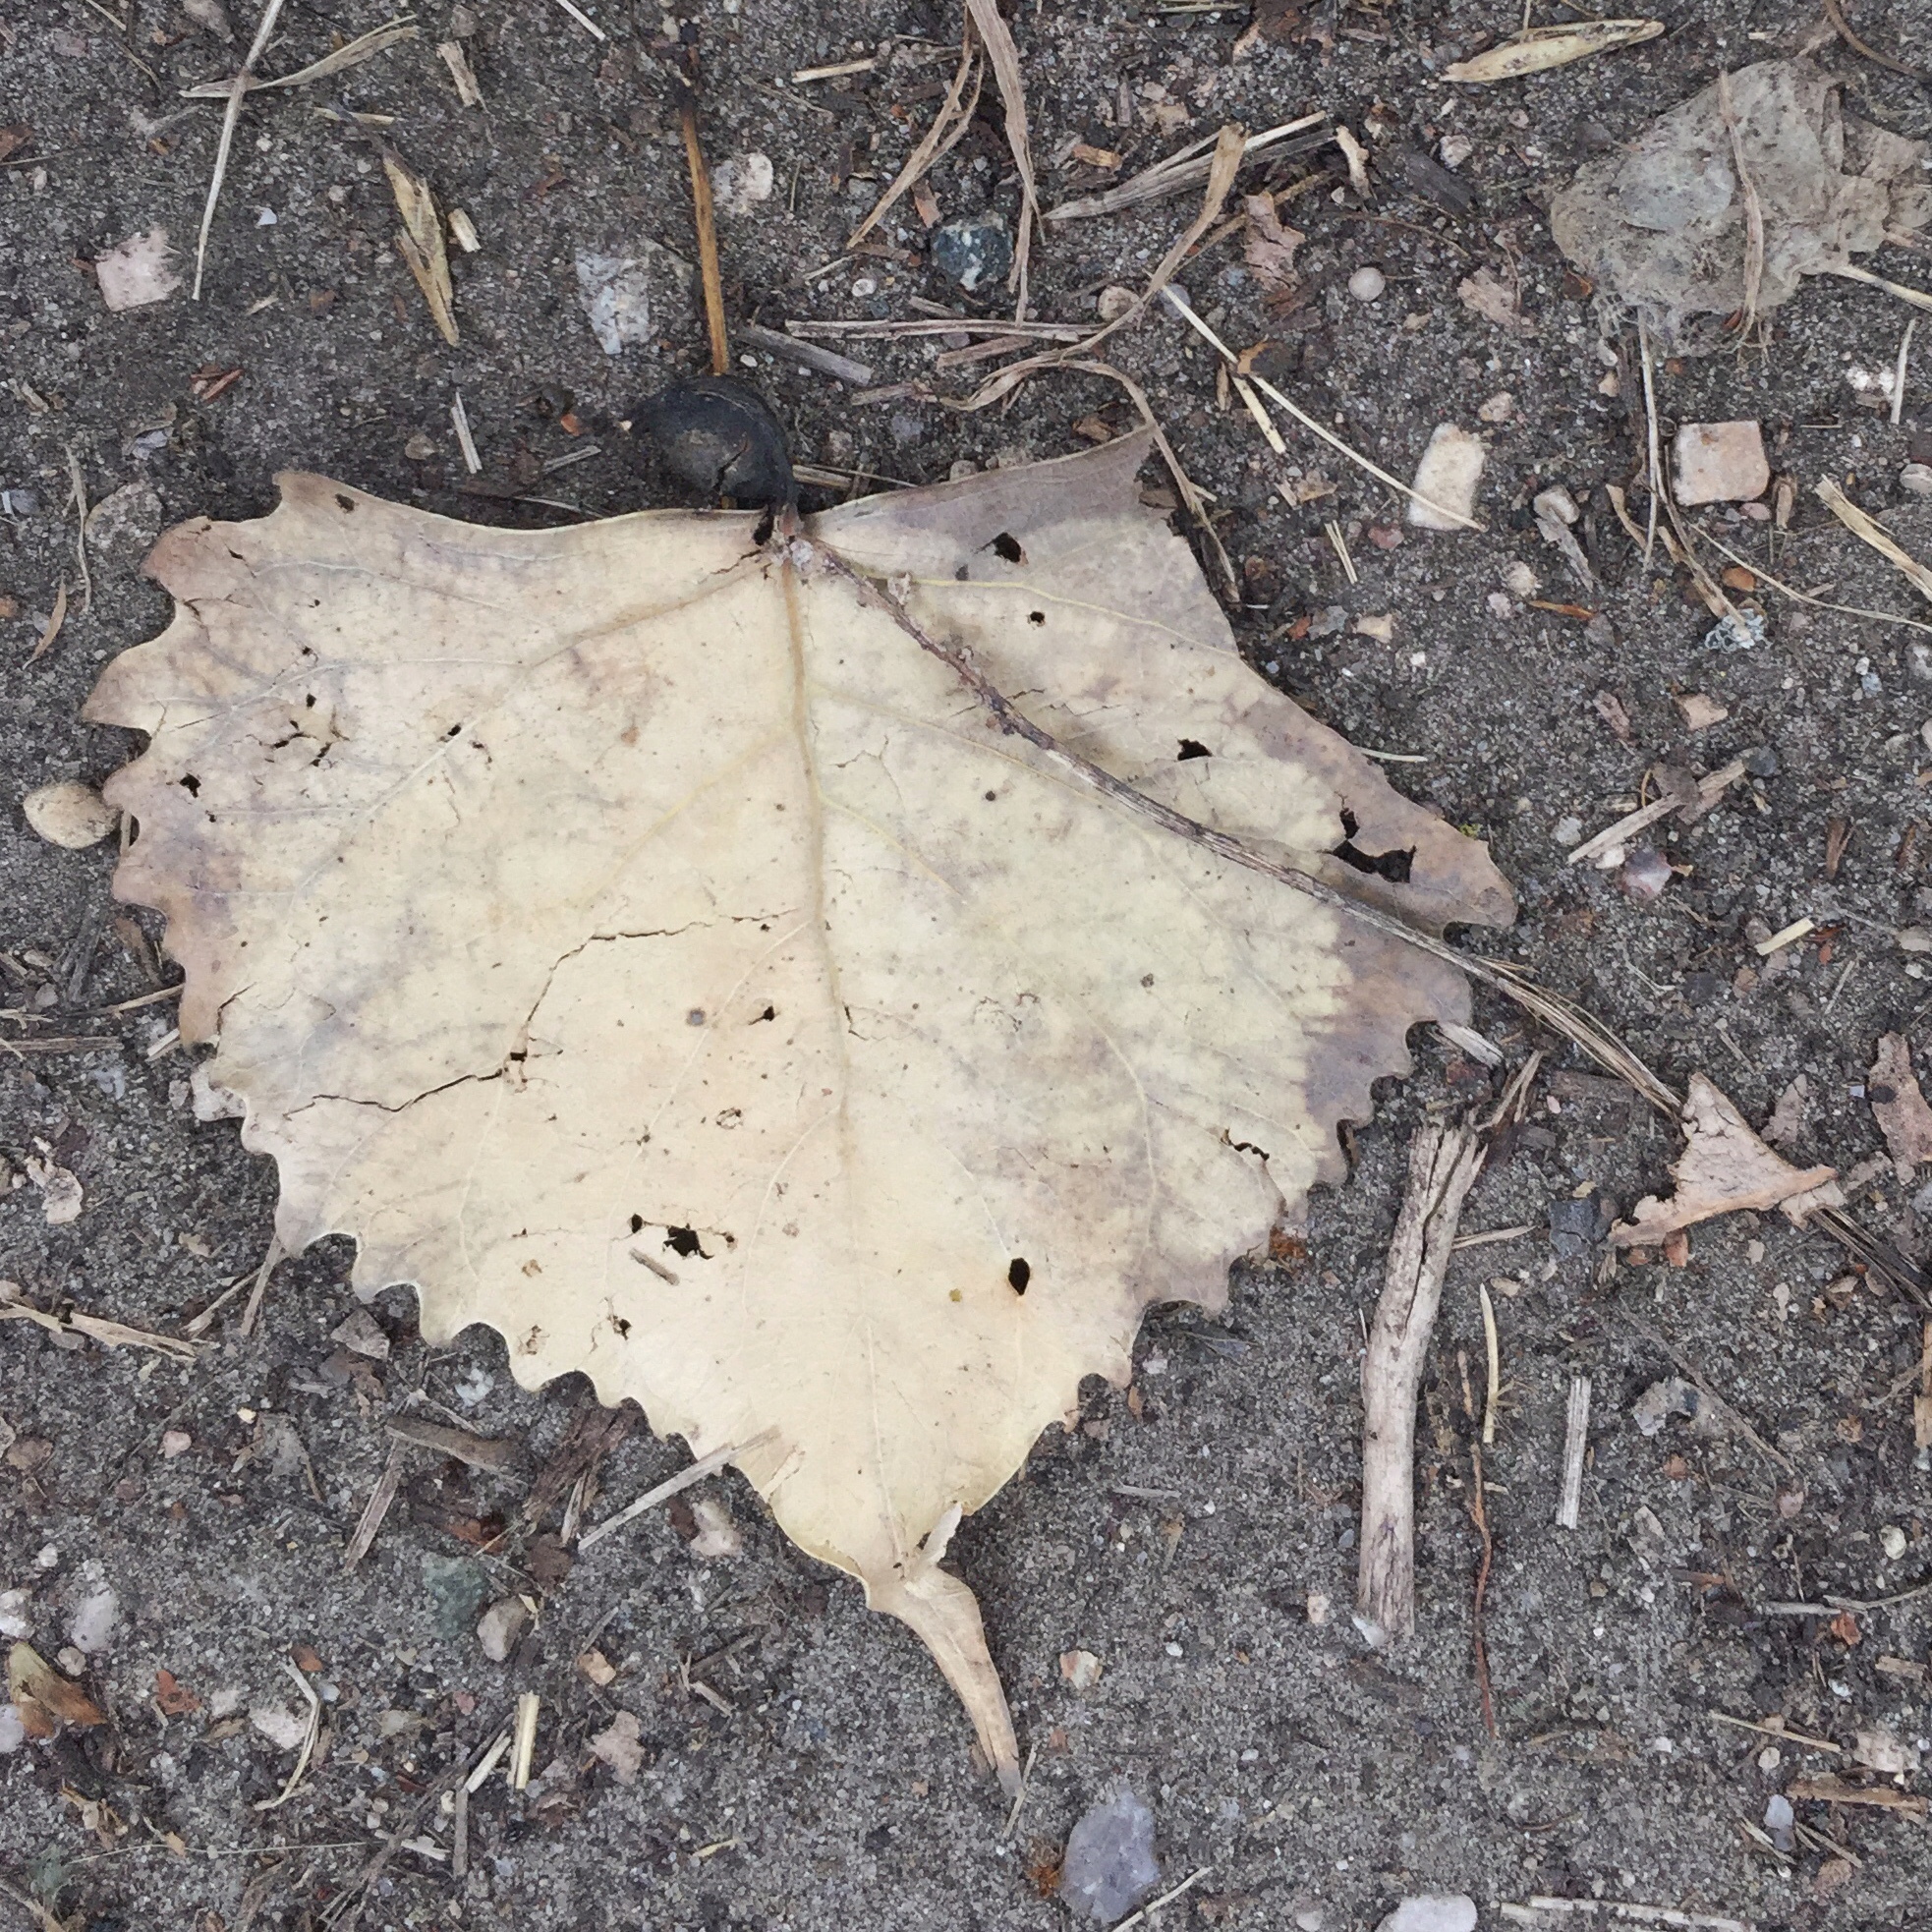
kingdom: Plantae
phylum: Tracheophyta
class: Magnoliopsida
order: Malpighiales
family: Salicaceae
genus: Populus
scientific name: Populus deltoides
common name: Eastern cottonwood
